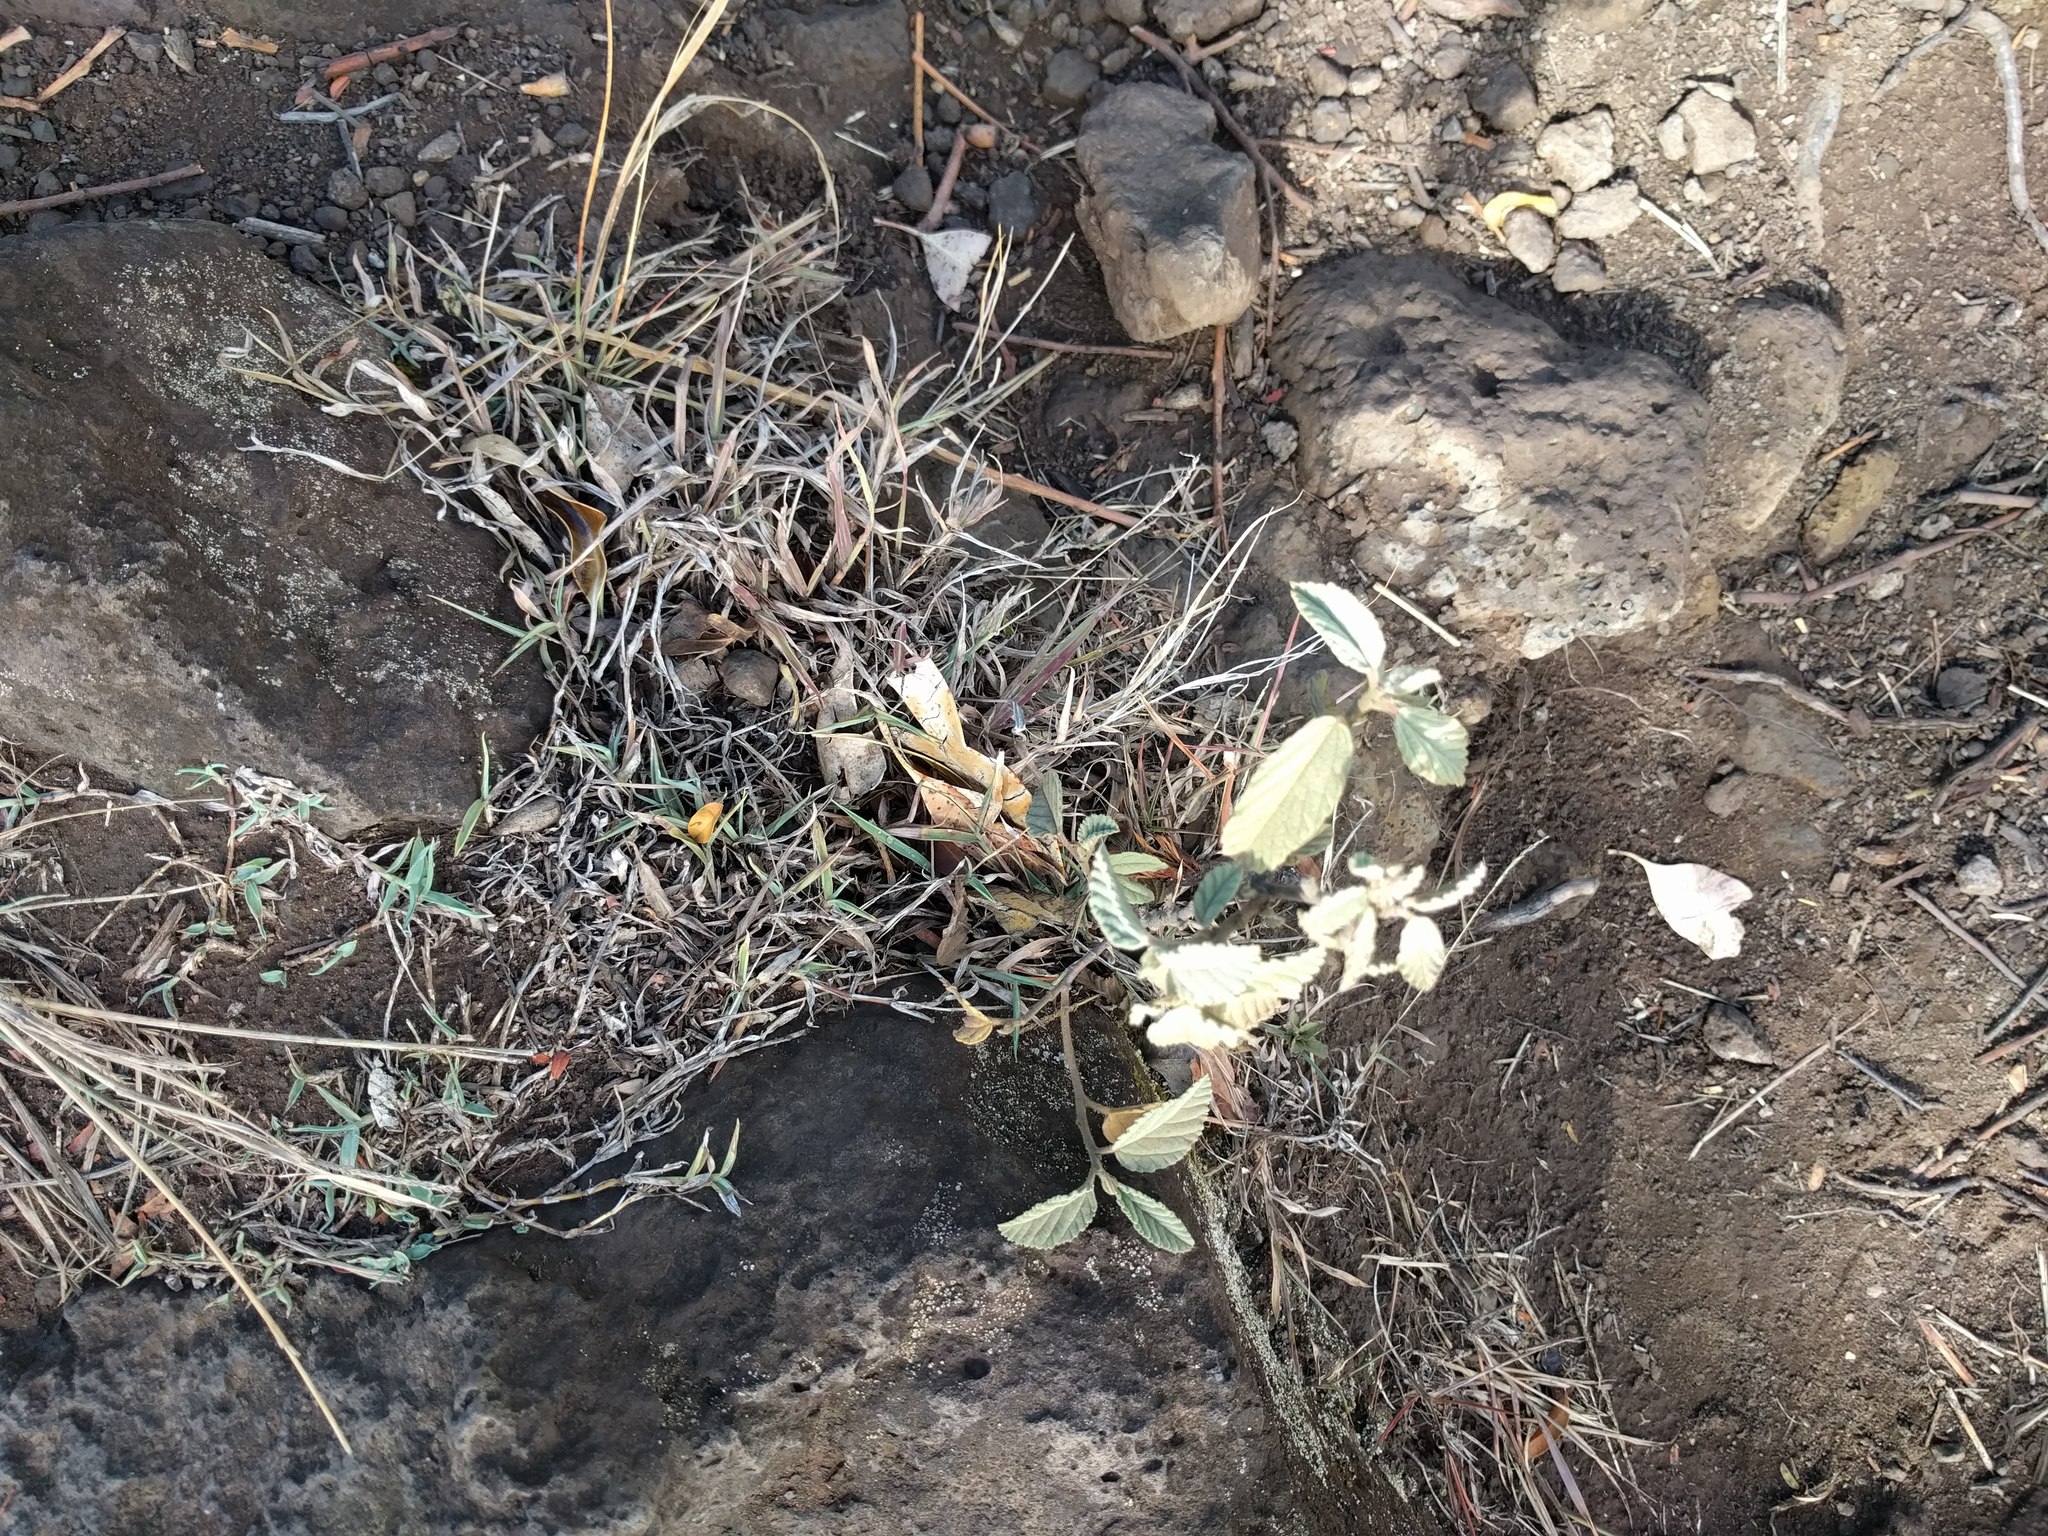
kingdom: Plantae
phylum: Tracheophyta
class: Magnoliopsida
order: Malvales
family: Malvaceae
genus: Waltheria
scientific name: Waltheria indica
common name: Leather-coat
